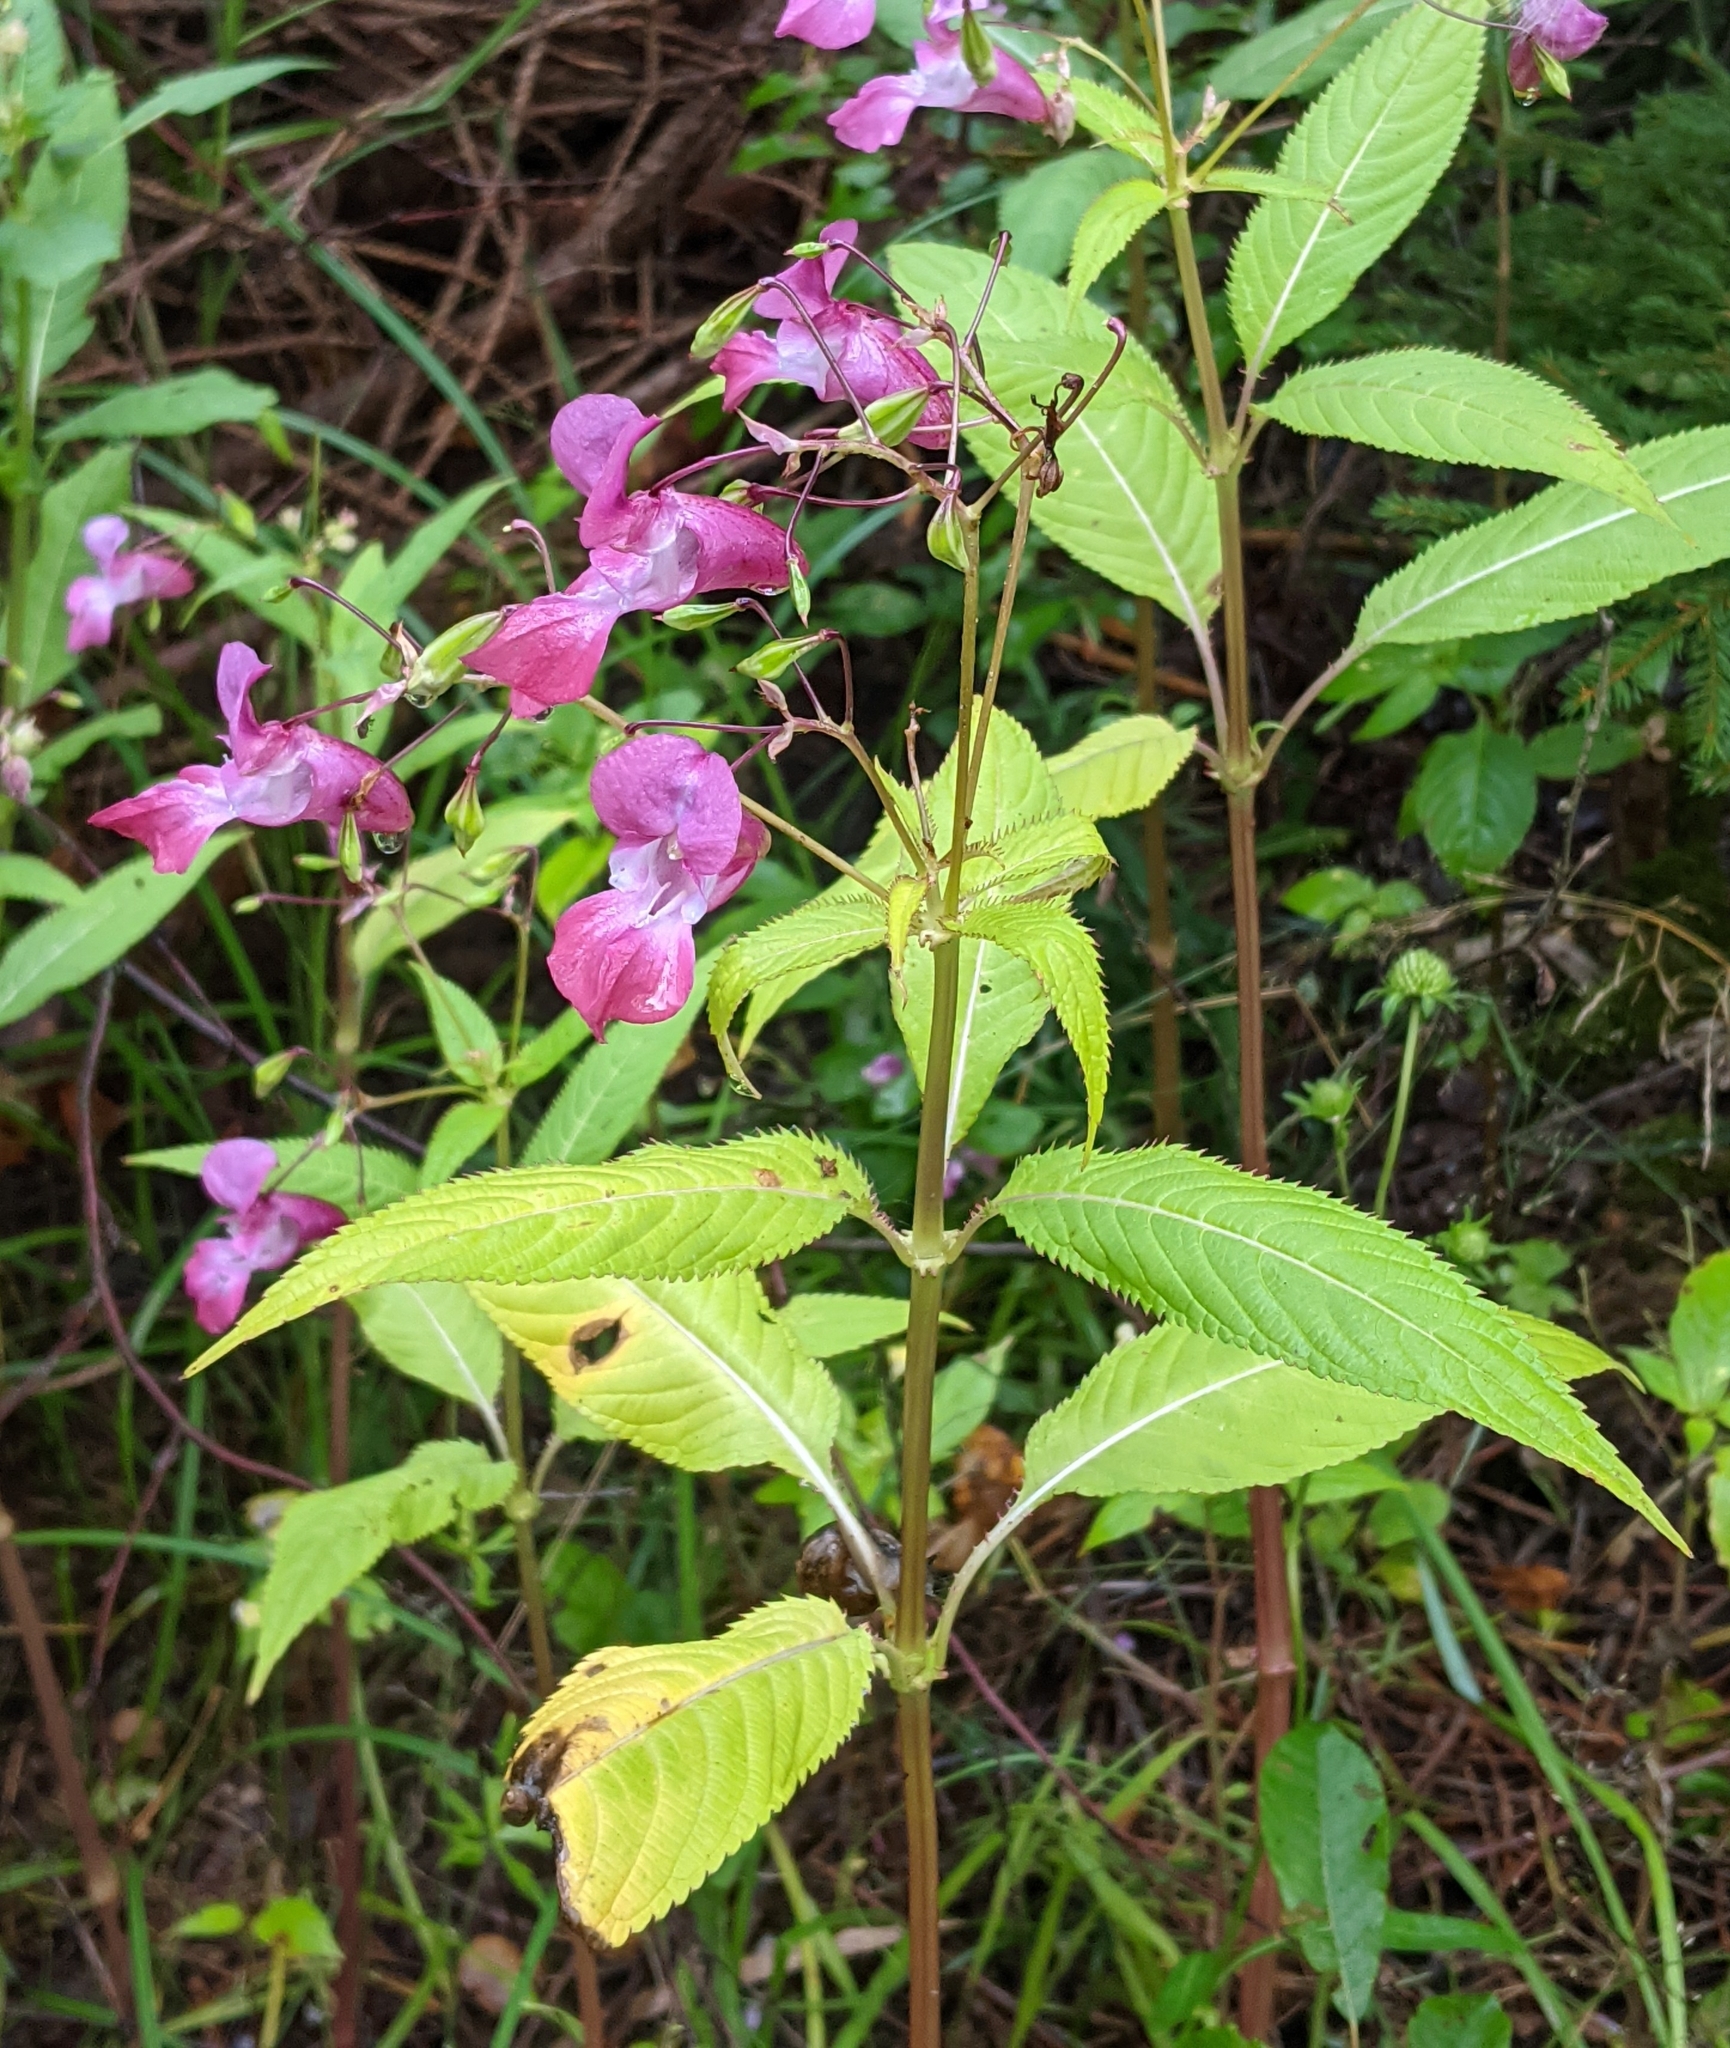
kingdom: Plantae
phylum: Tracheophyta
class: Magnoliopsida
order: Ericales
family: Balsaminaceae
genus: Impatiens
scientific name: Impatiens glandulifera
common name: Himalayan balsam
